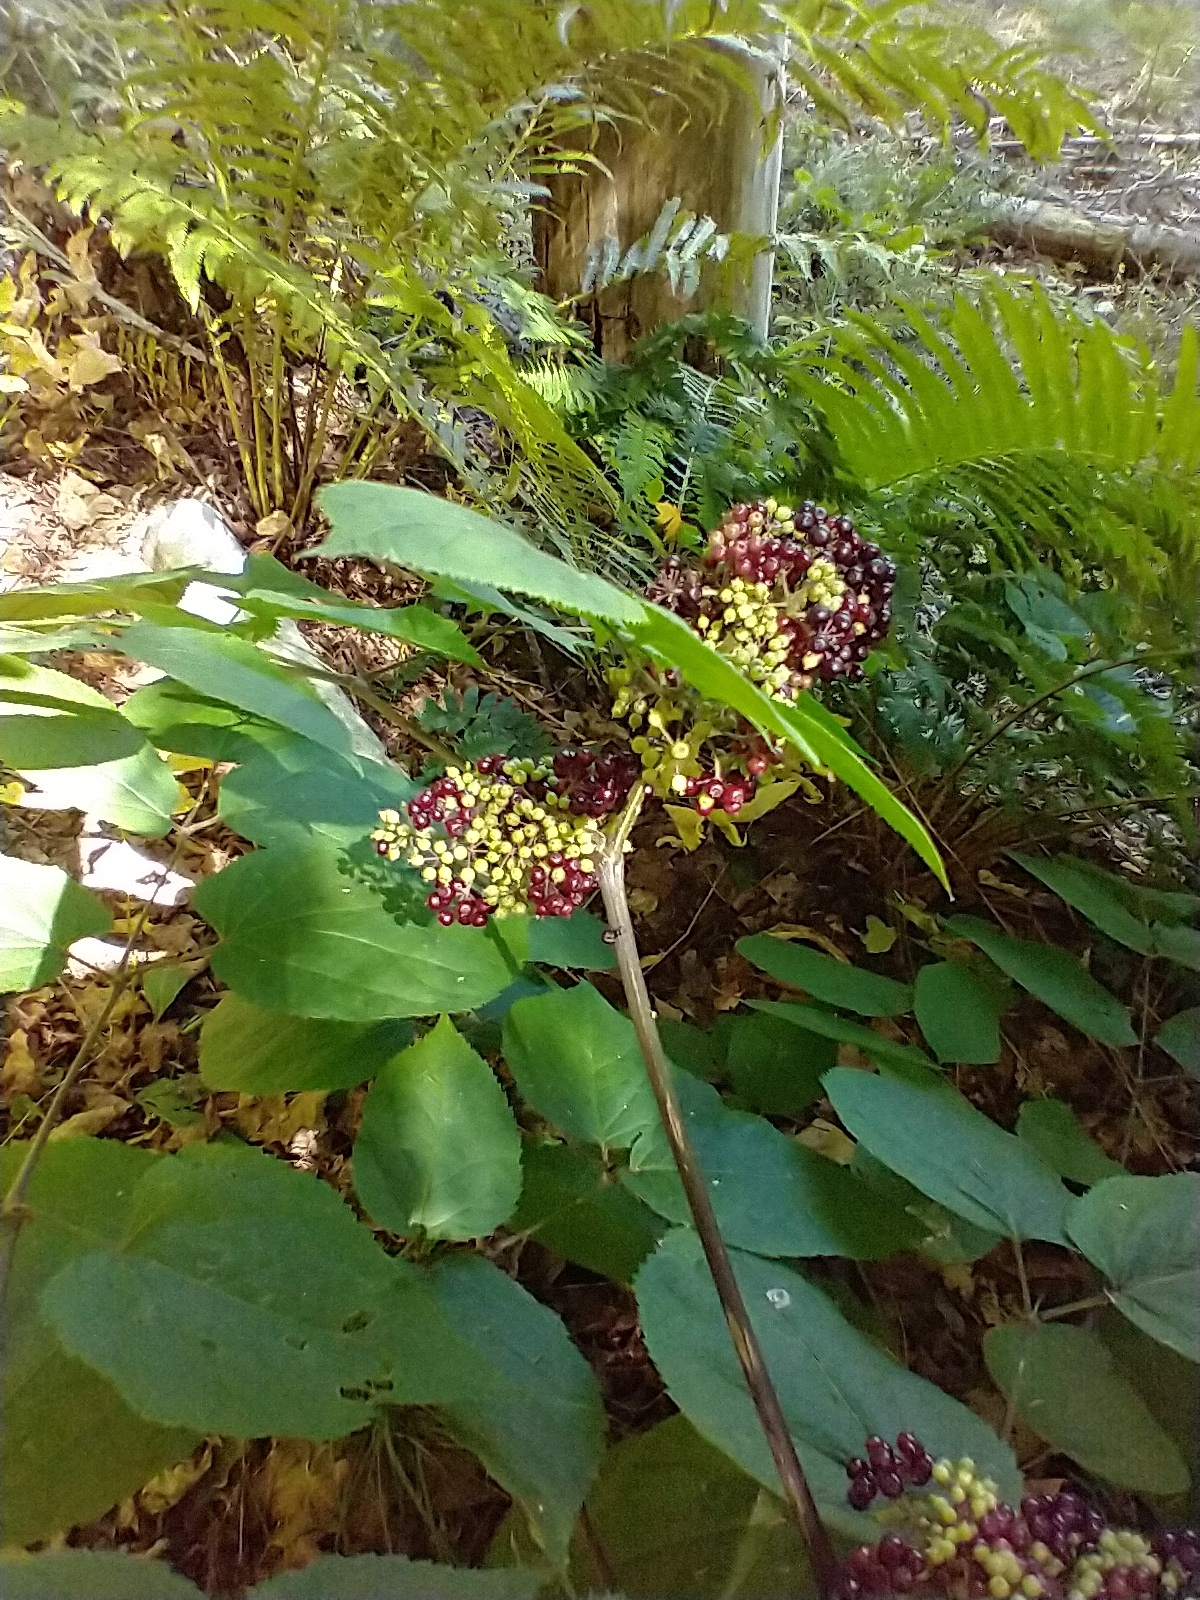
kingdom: Plantae
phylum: Tracheophyta
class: Magnoliopsida
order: Apiales
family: Araliaceae
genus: Aralia
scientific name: Aralia racemosa
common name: American-spikenard
